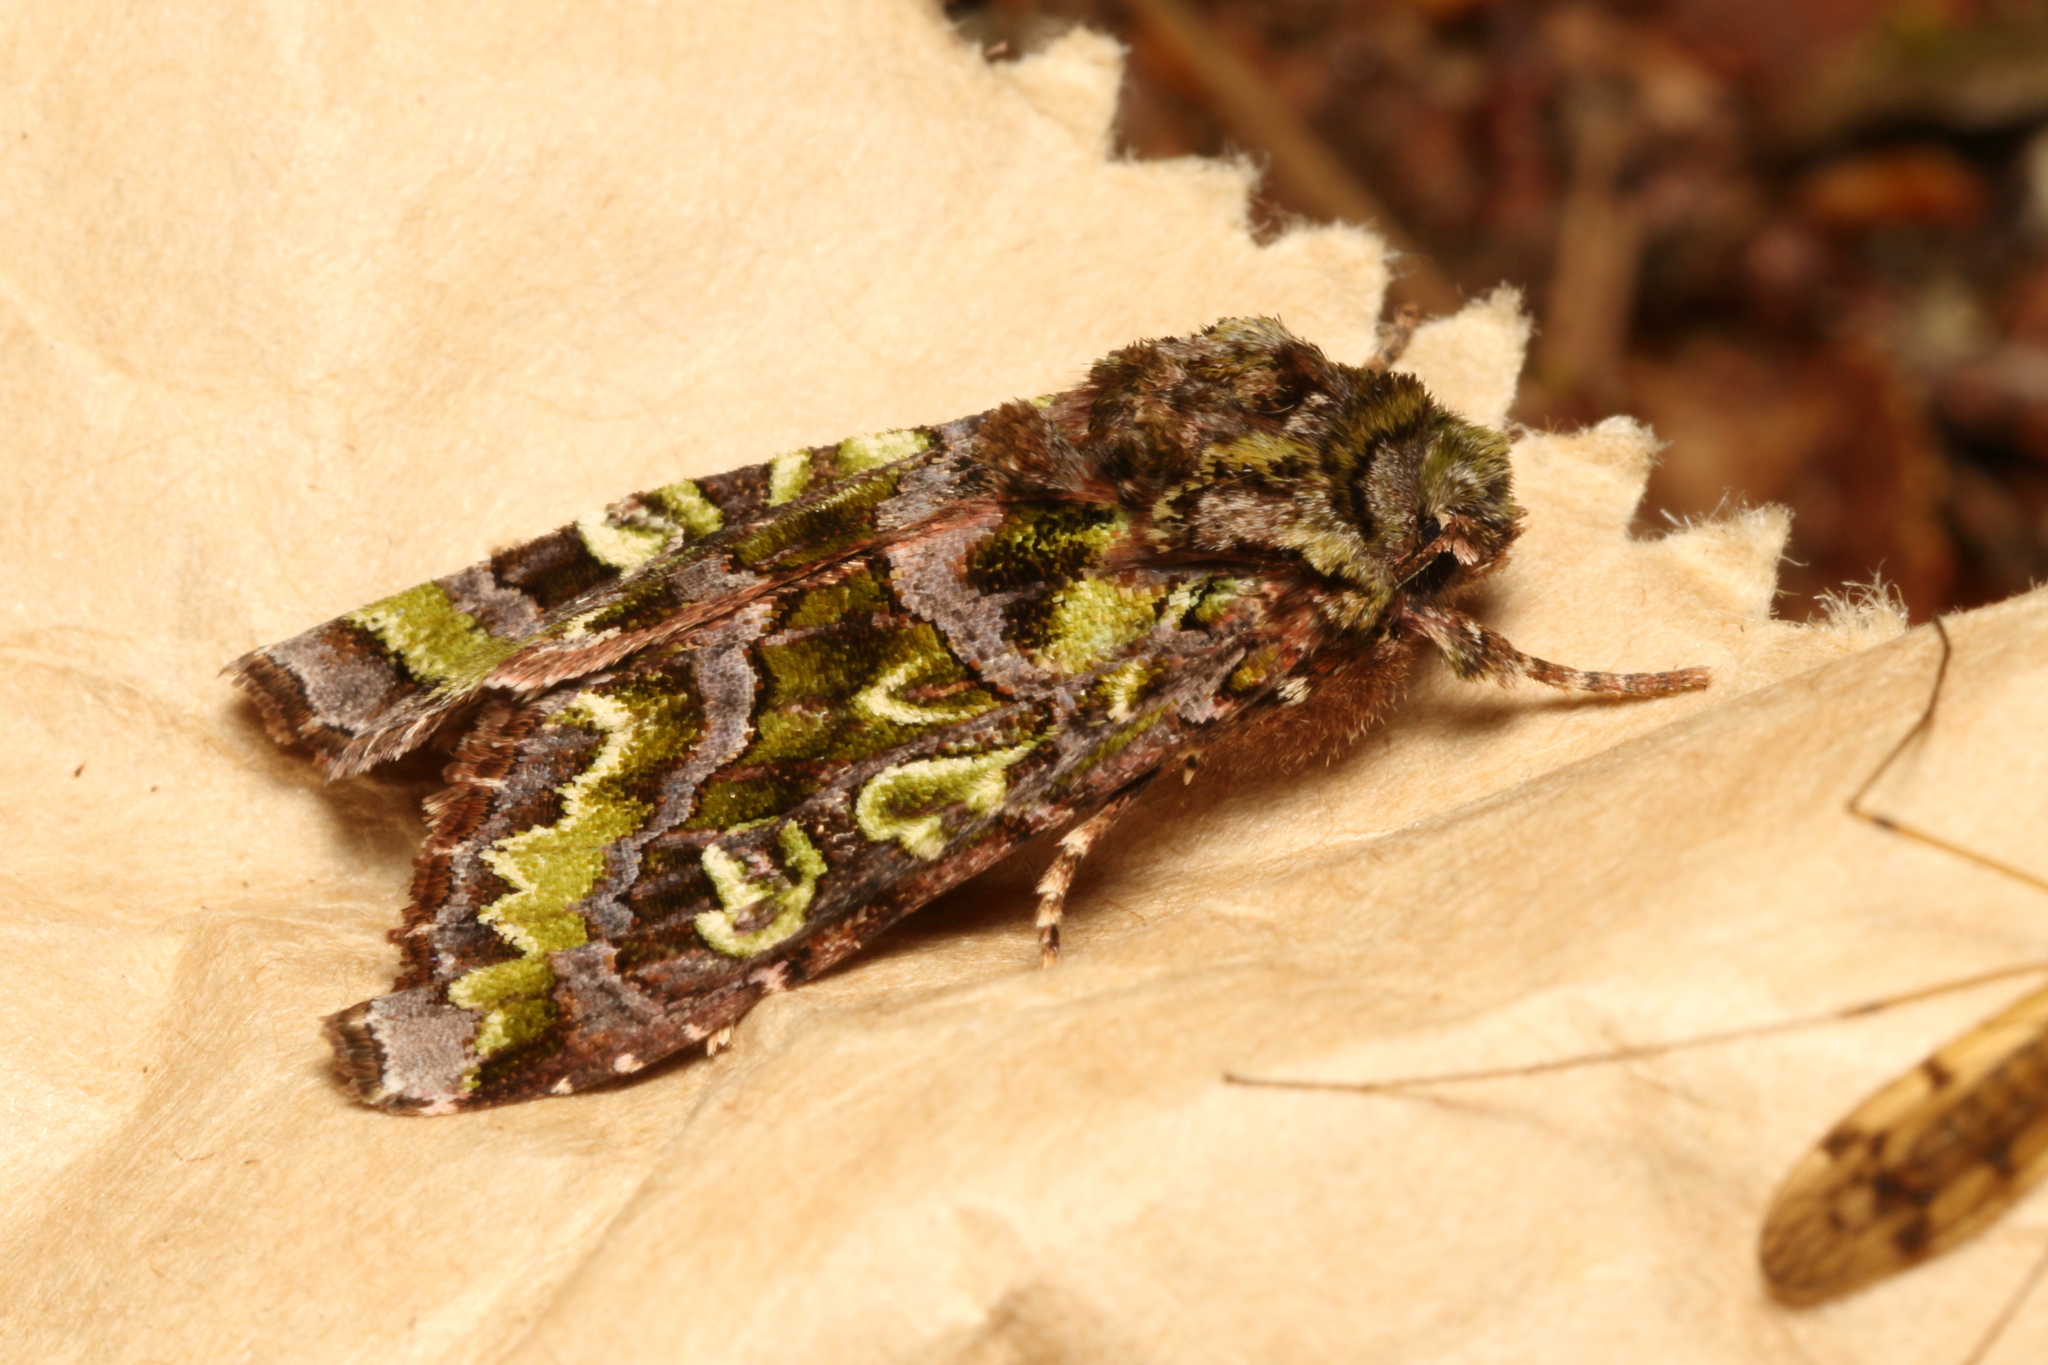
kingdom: Animalia
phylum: Arthropoda
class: Insecta
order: Lepidoptera
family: Noctuidae
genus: Ichneutica
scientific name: Ichneutica chlorodonta
